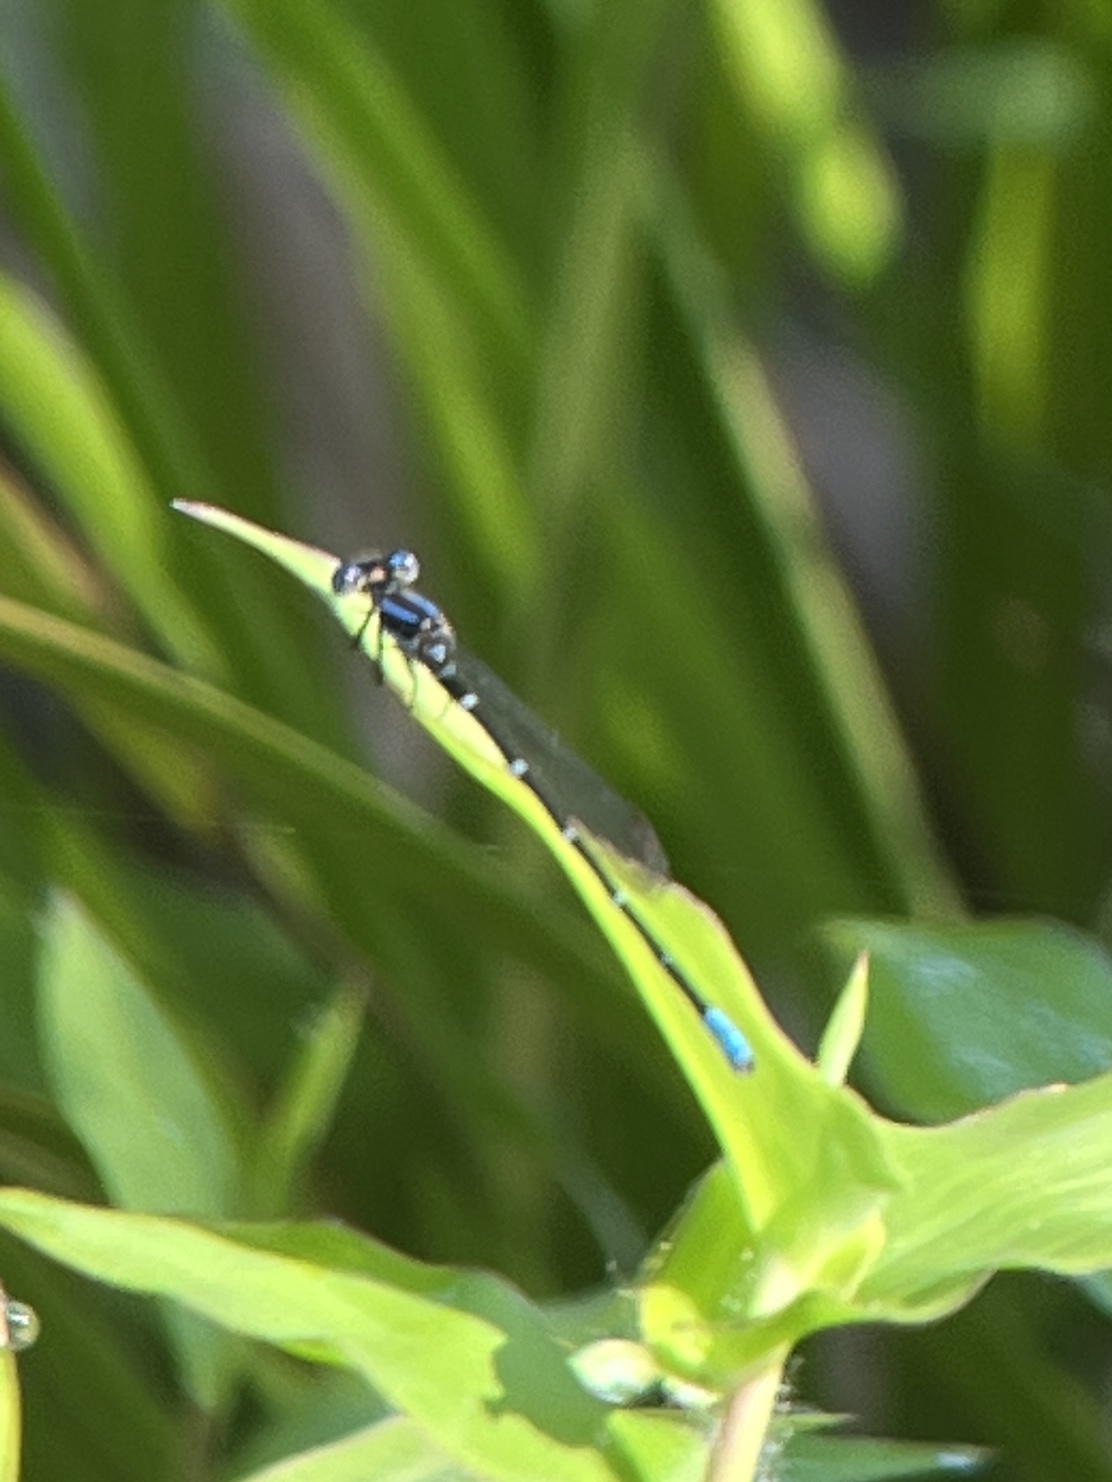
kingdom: Animalia
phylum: Arthropoda
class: Insecta
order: Odonata
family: Coenagrionidae
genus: Argia
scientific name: Argia sedula
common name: Blue-ringed dancer
